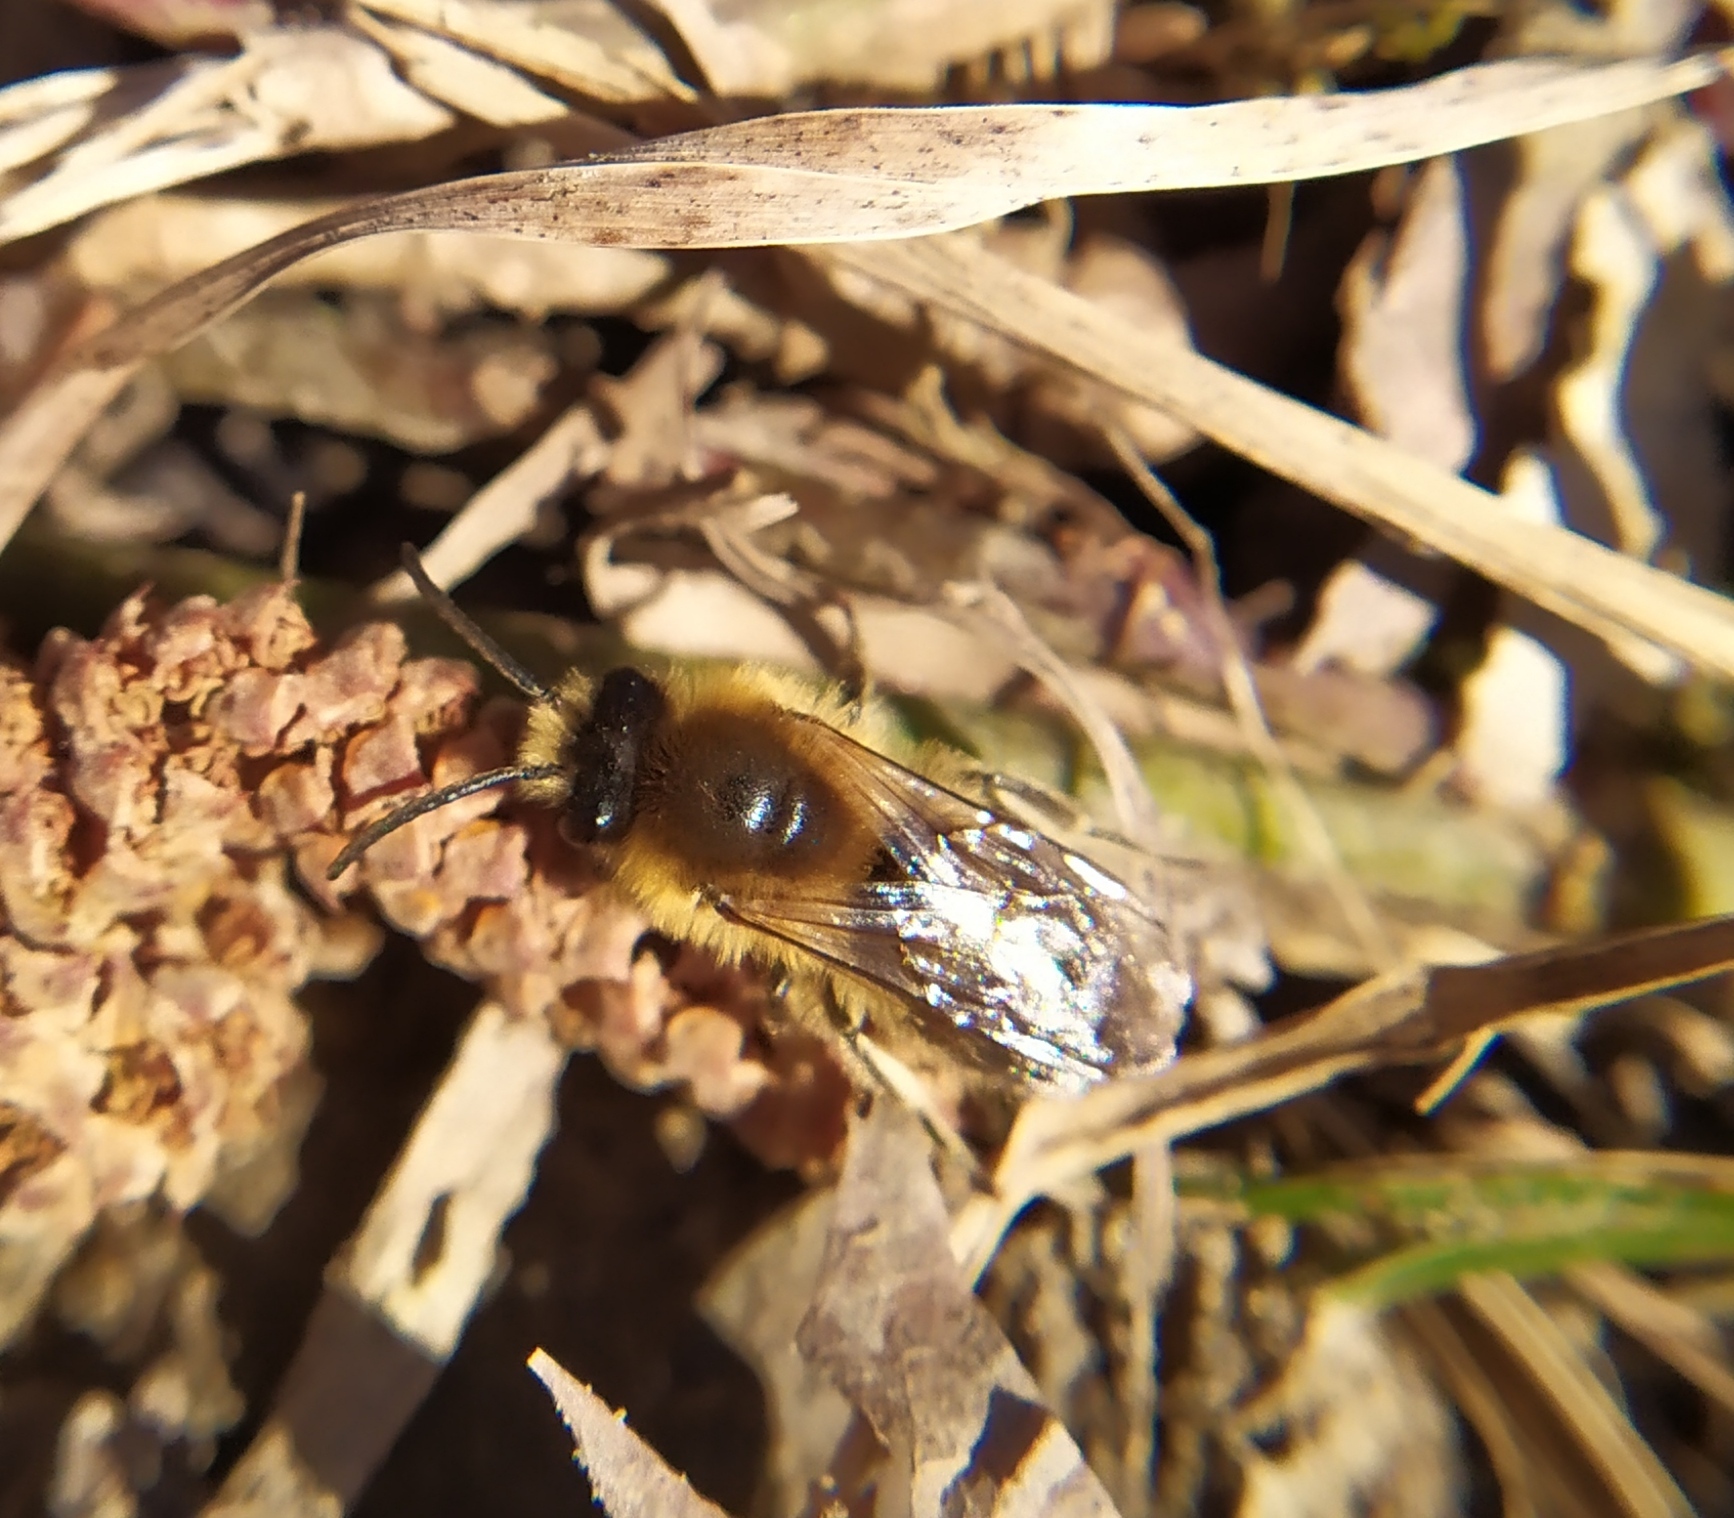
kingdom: Animalia
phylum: Arthropoda
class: Insecta
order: Hymenoptera
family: Colletidae
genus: Colletes
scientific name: Colletes cunicularius
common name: Early colletes
